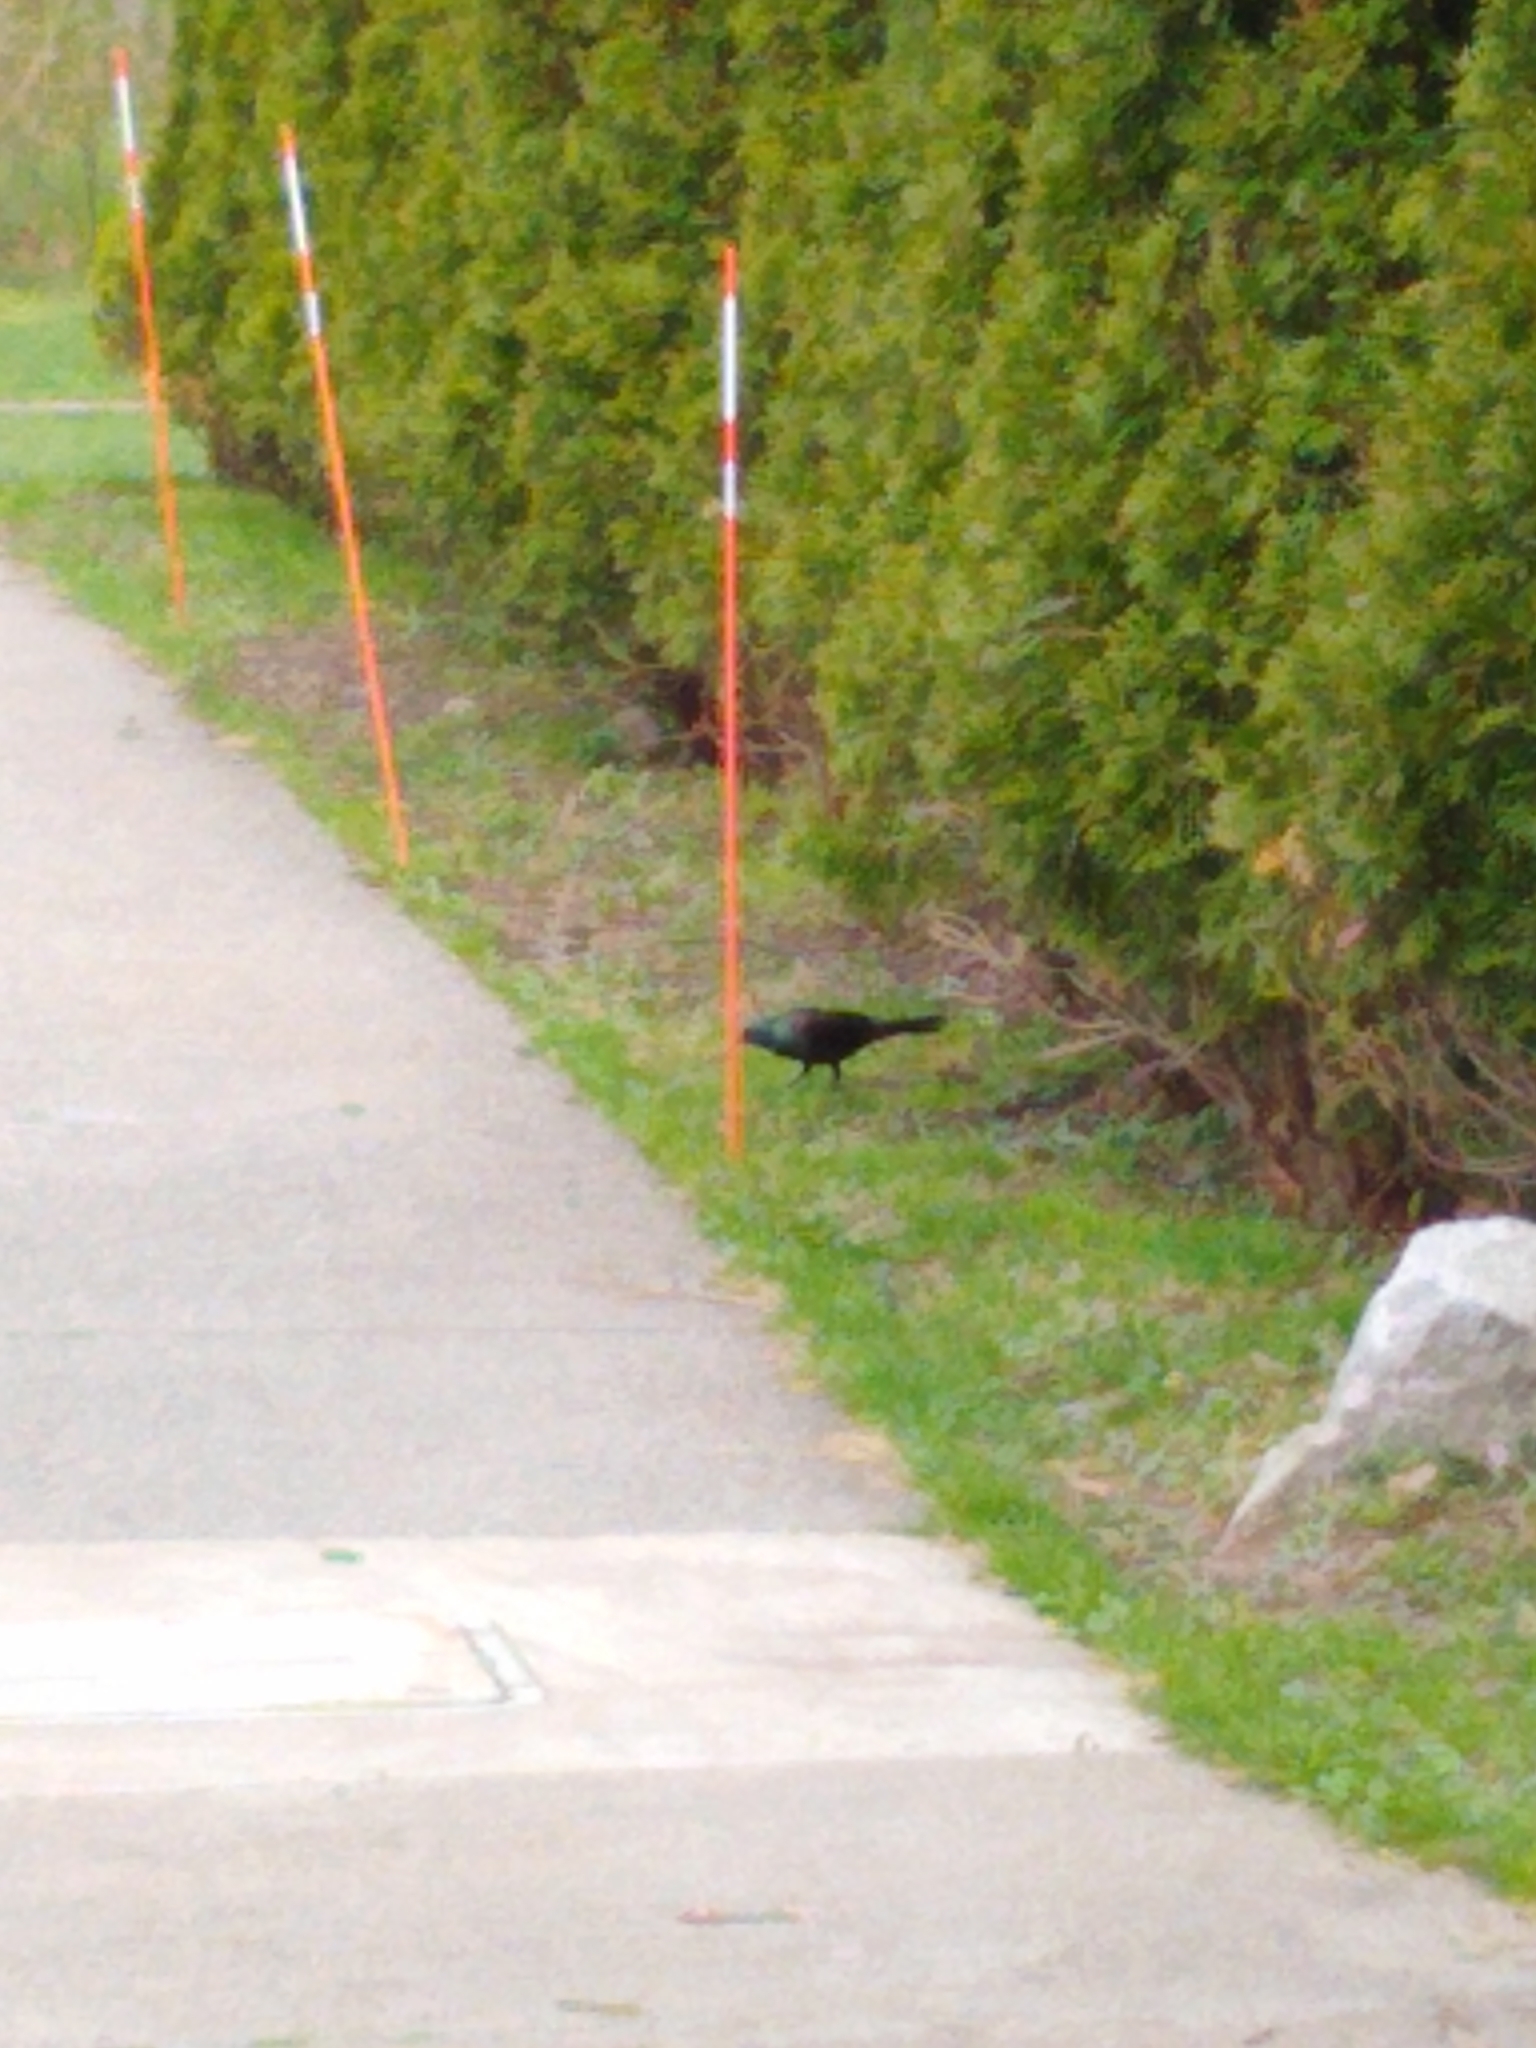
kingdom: Animalia
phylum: Chordata
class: Aves
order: Passeriformes
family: Icteridae
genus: Quiscalus
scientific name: Quiscalus quiscula
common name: Common grackle
